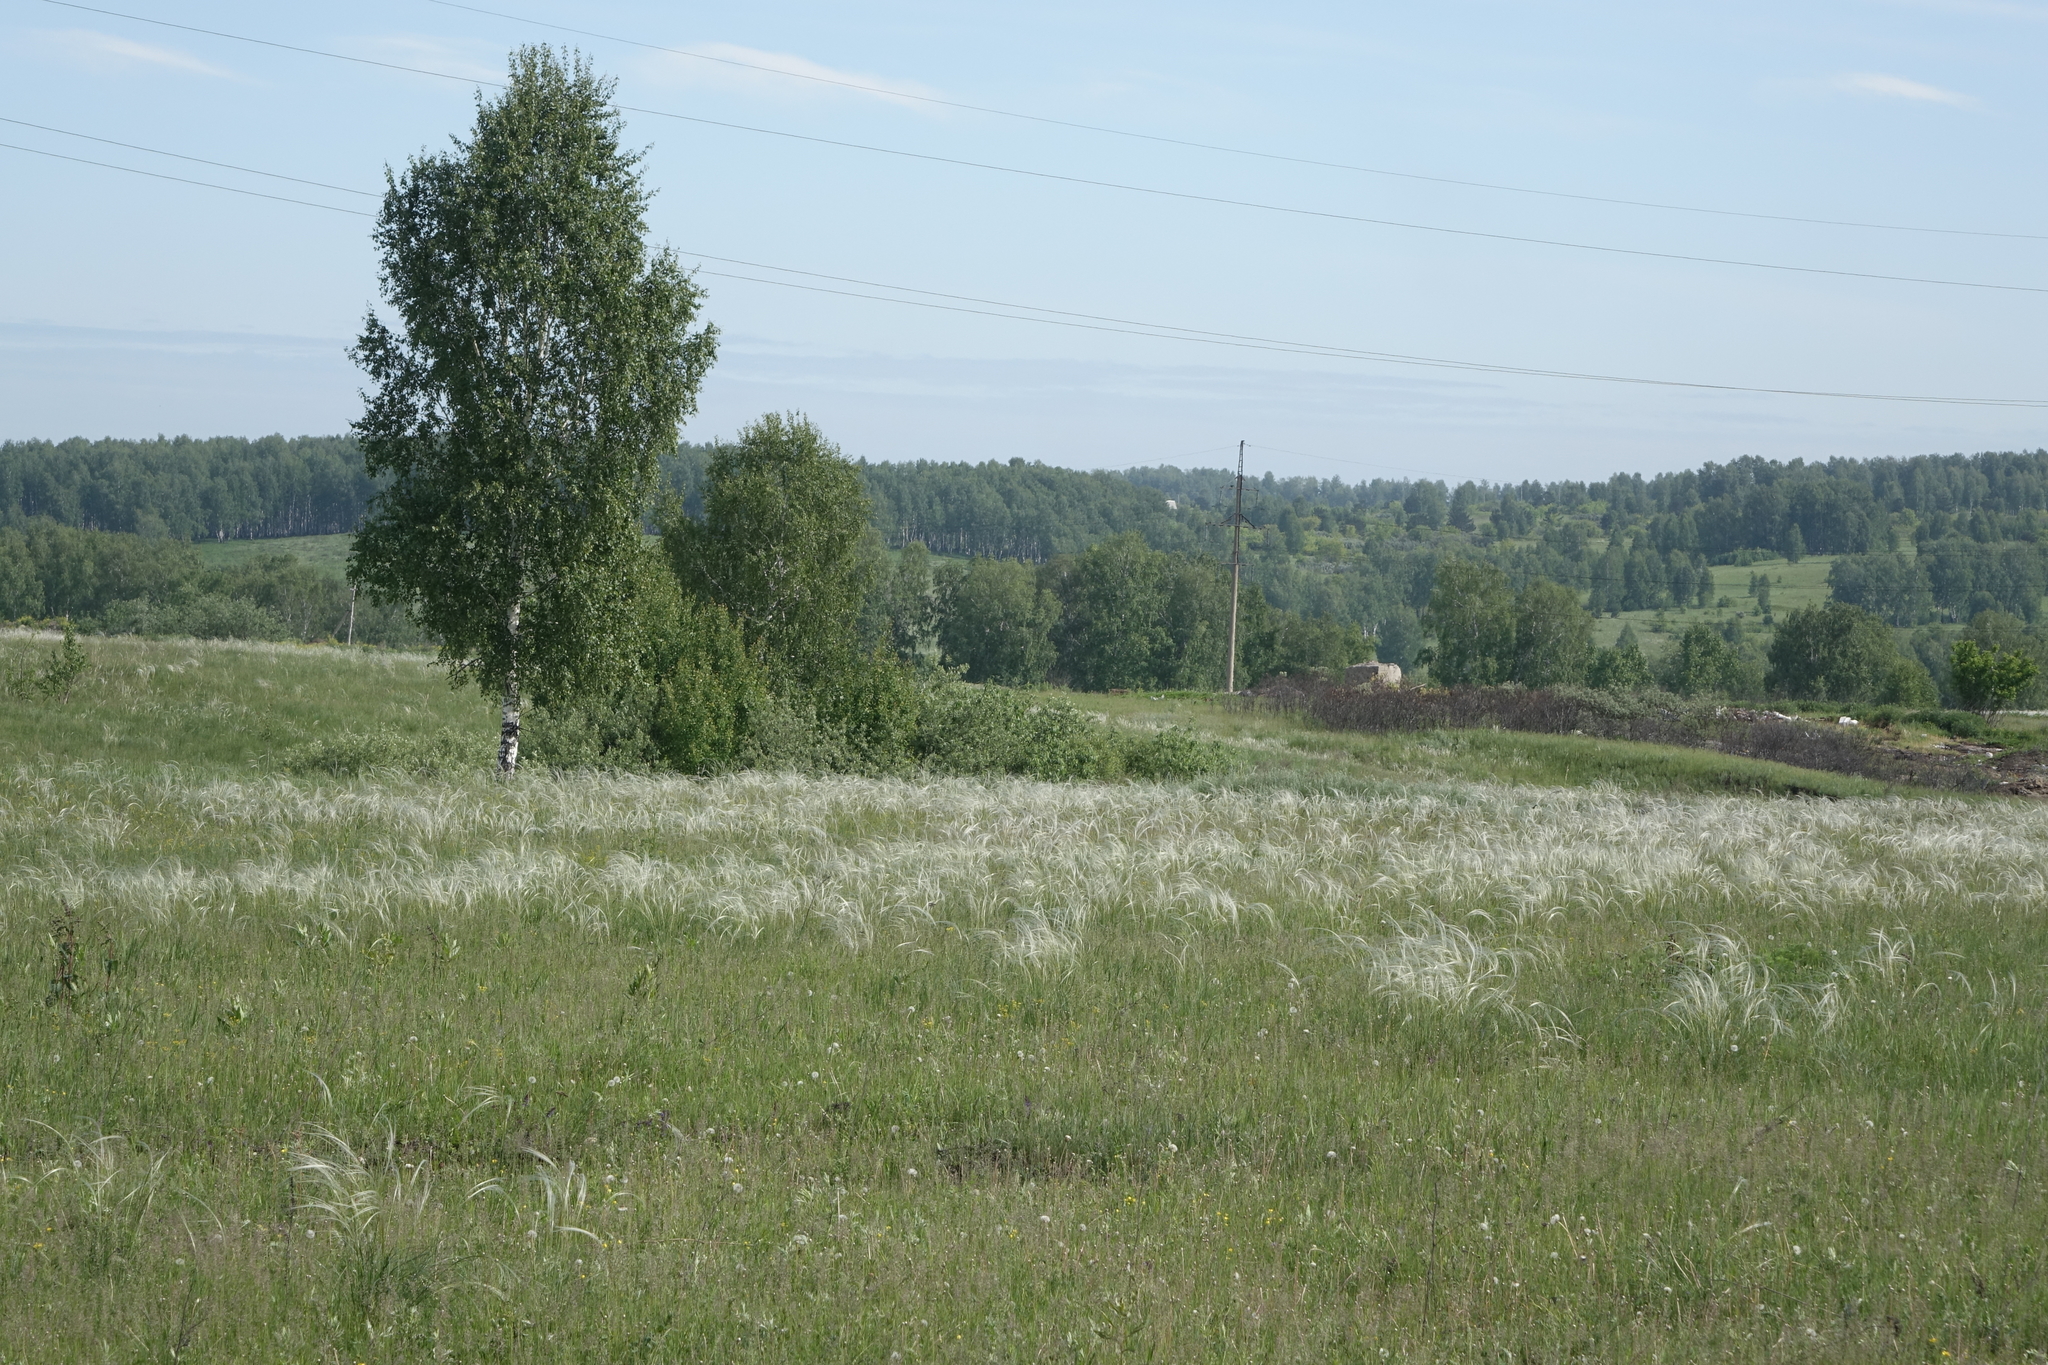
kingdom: Plantae
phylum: Tracheophyta
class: Magnoliopsida
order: Fagales
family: Betulaceae
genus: Betula
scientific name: Betula pendula
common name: Silver birch
